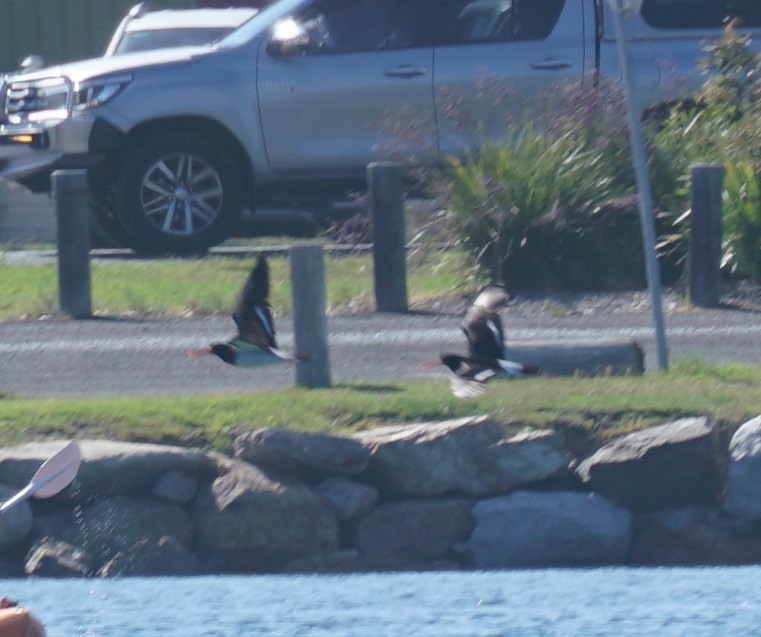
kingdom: Animalia
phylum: Chordata
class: Aves
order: Charadriiformes
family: Haematopodidae
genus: Haematopus
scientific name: Haematopus longirostris
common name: Pied oystercatcher
